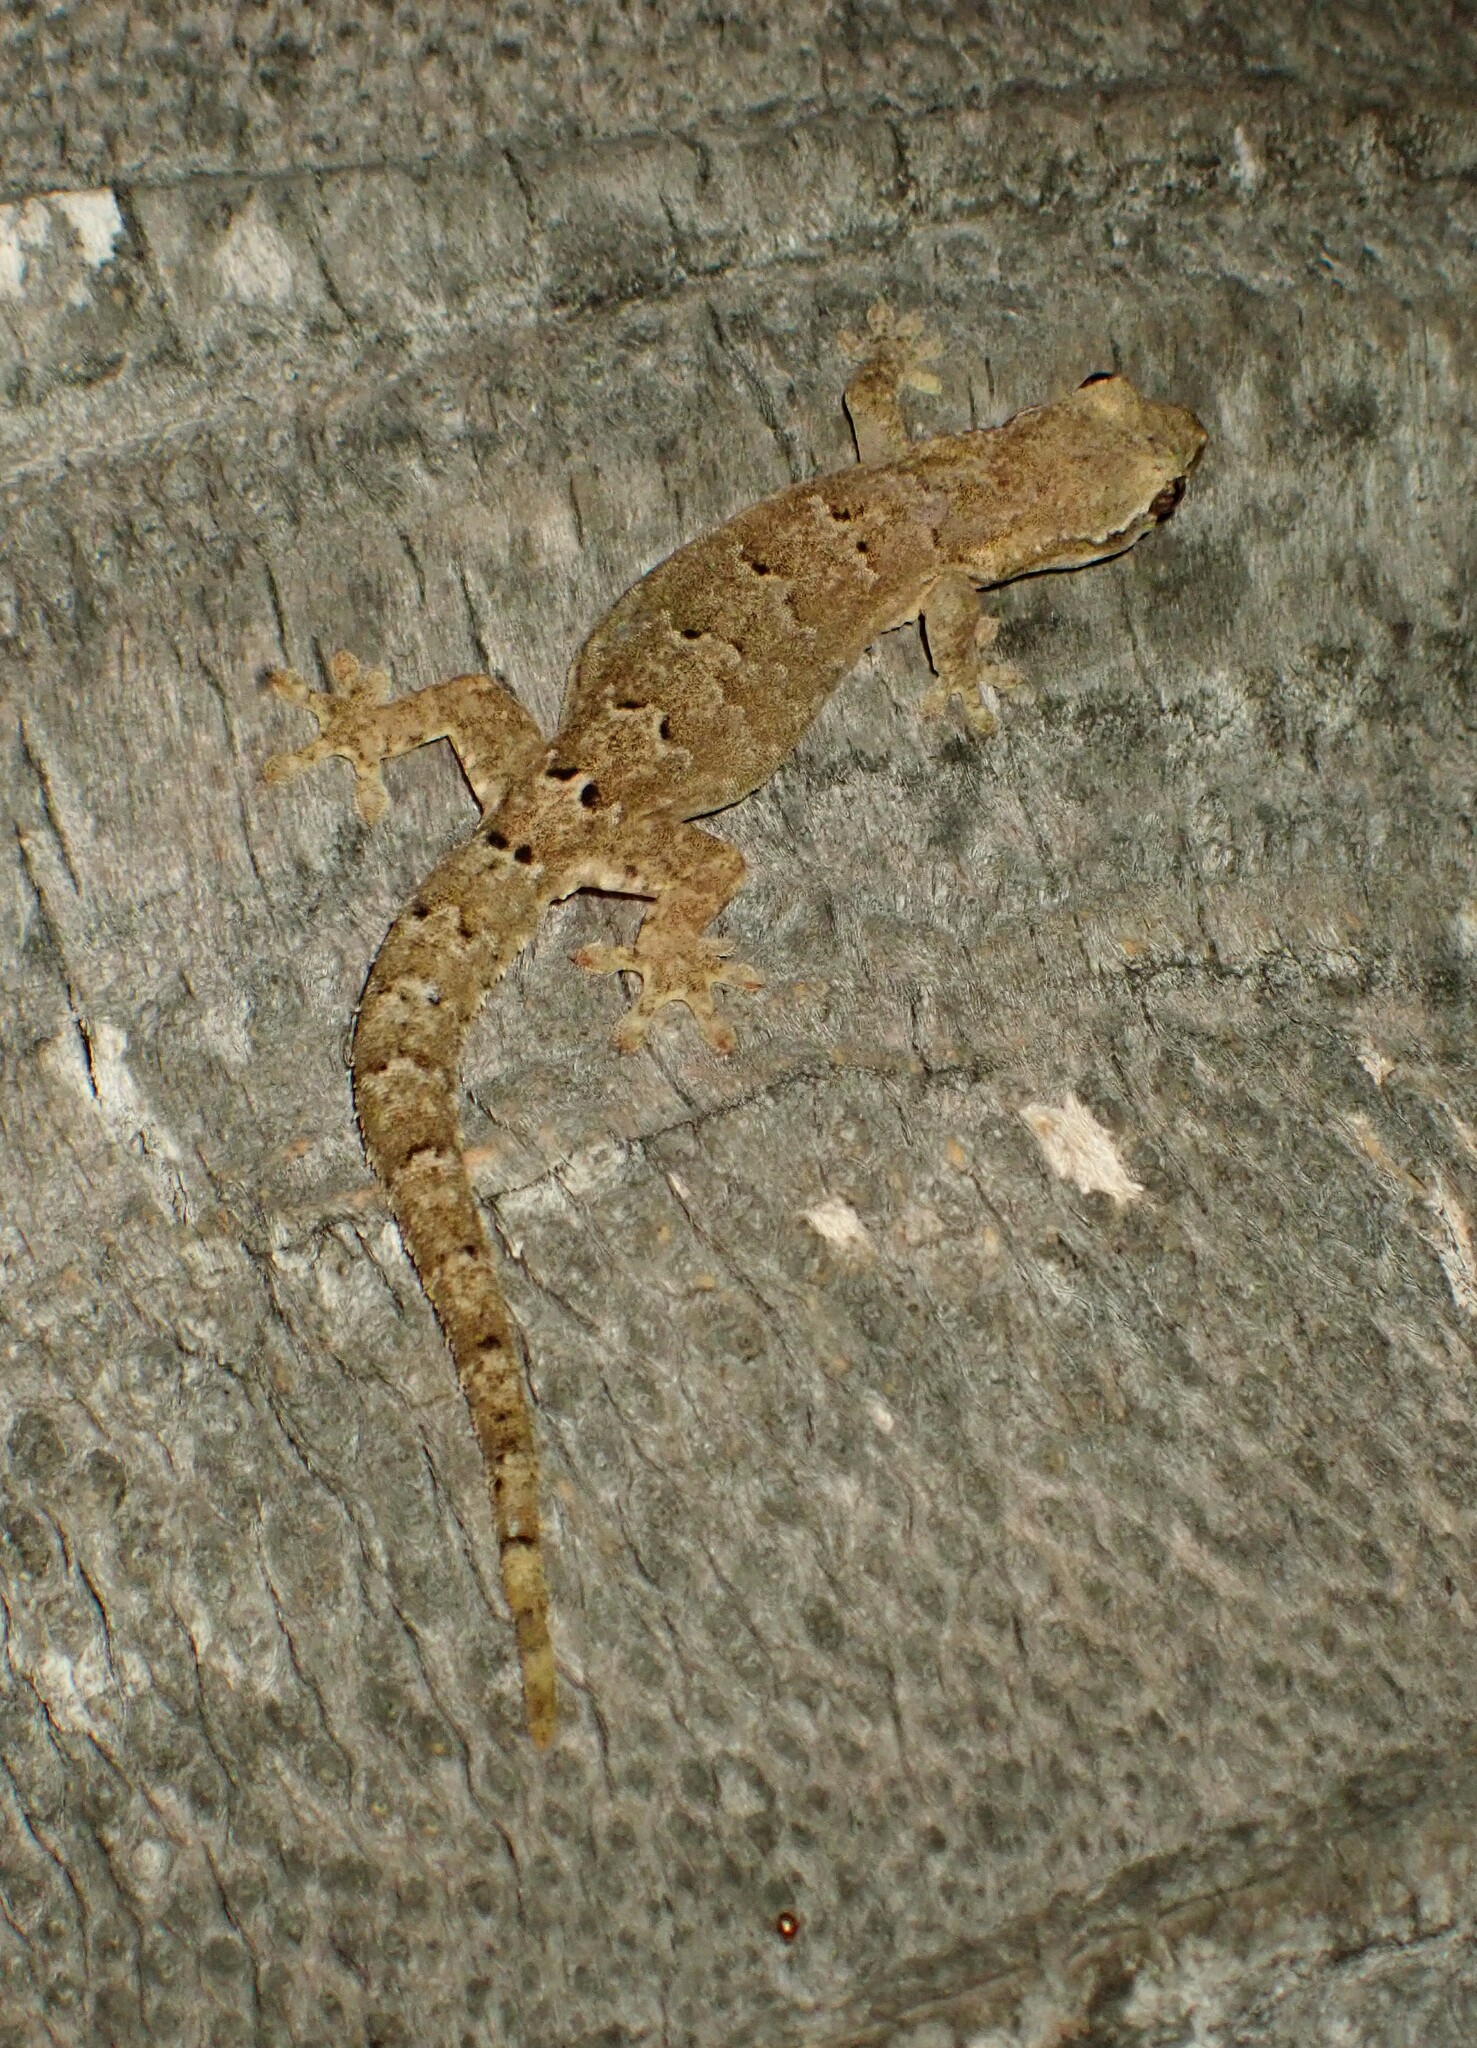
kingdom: Animalia
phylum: Chordata
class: Squamata
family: Gekkonidae
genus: Lepidodactylus
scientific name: Lepidodactylus lugubris
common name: Mourning gecko
